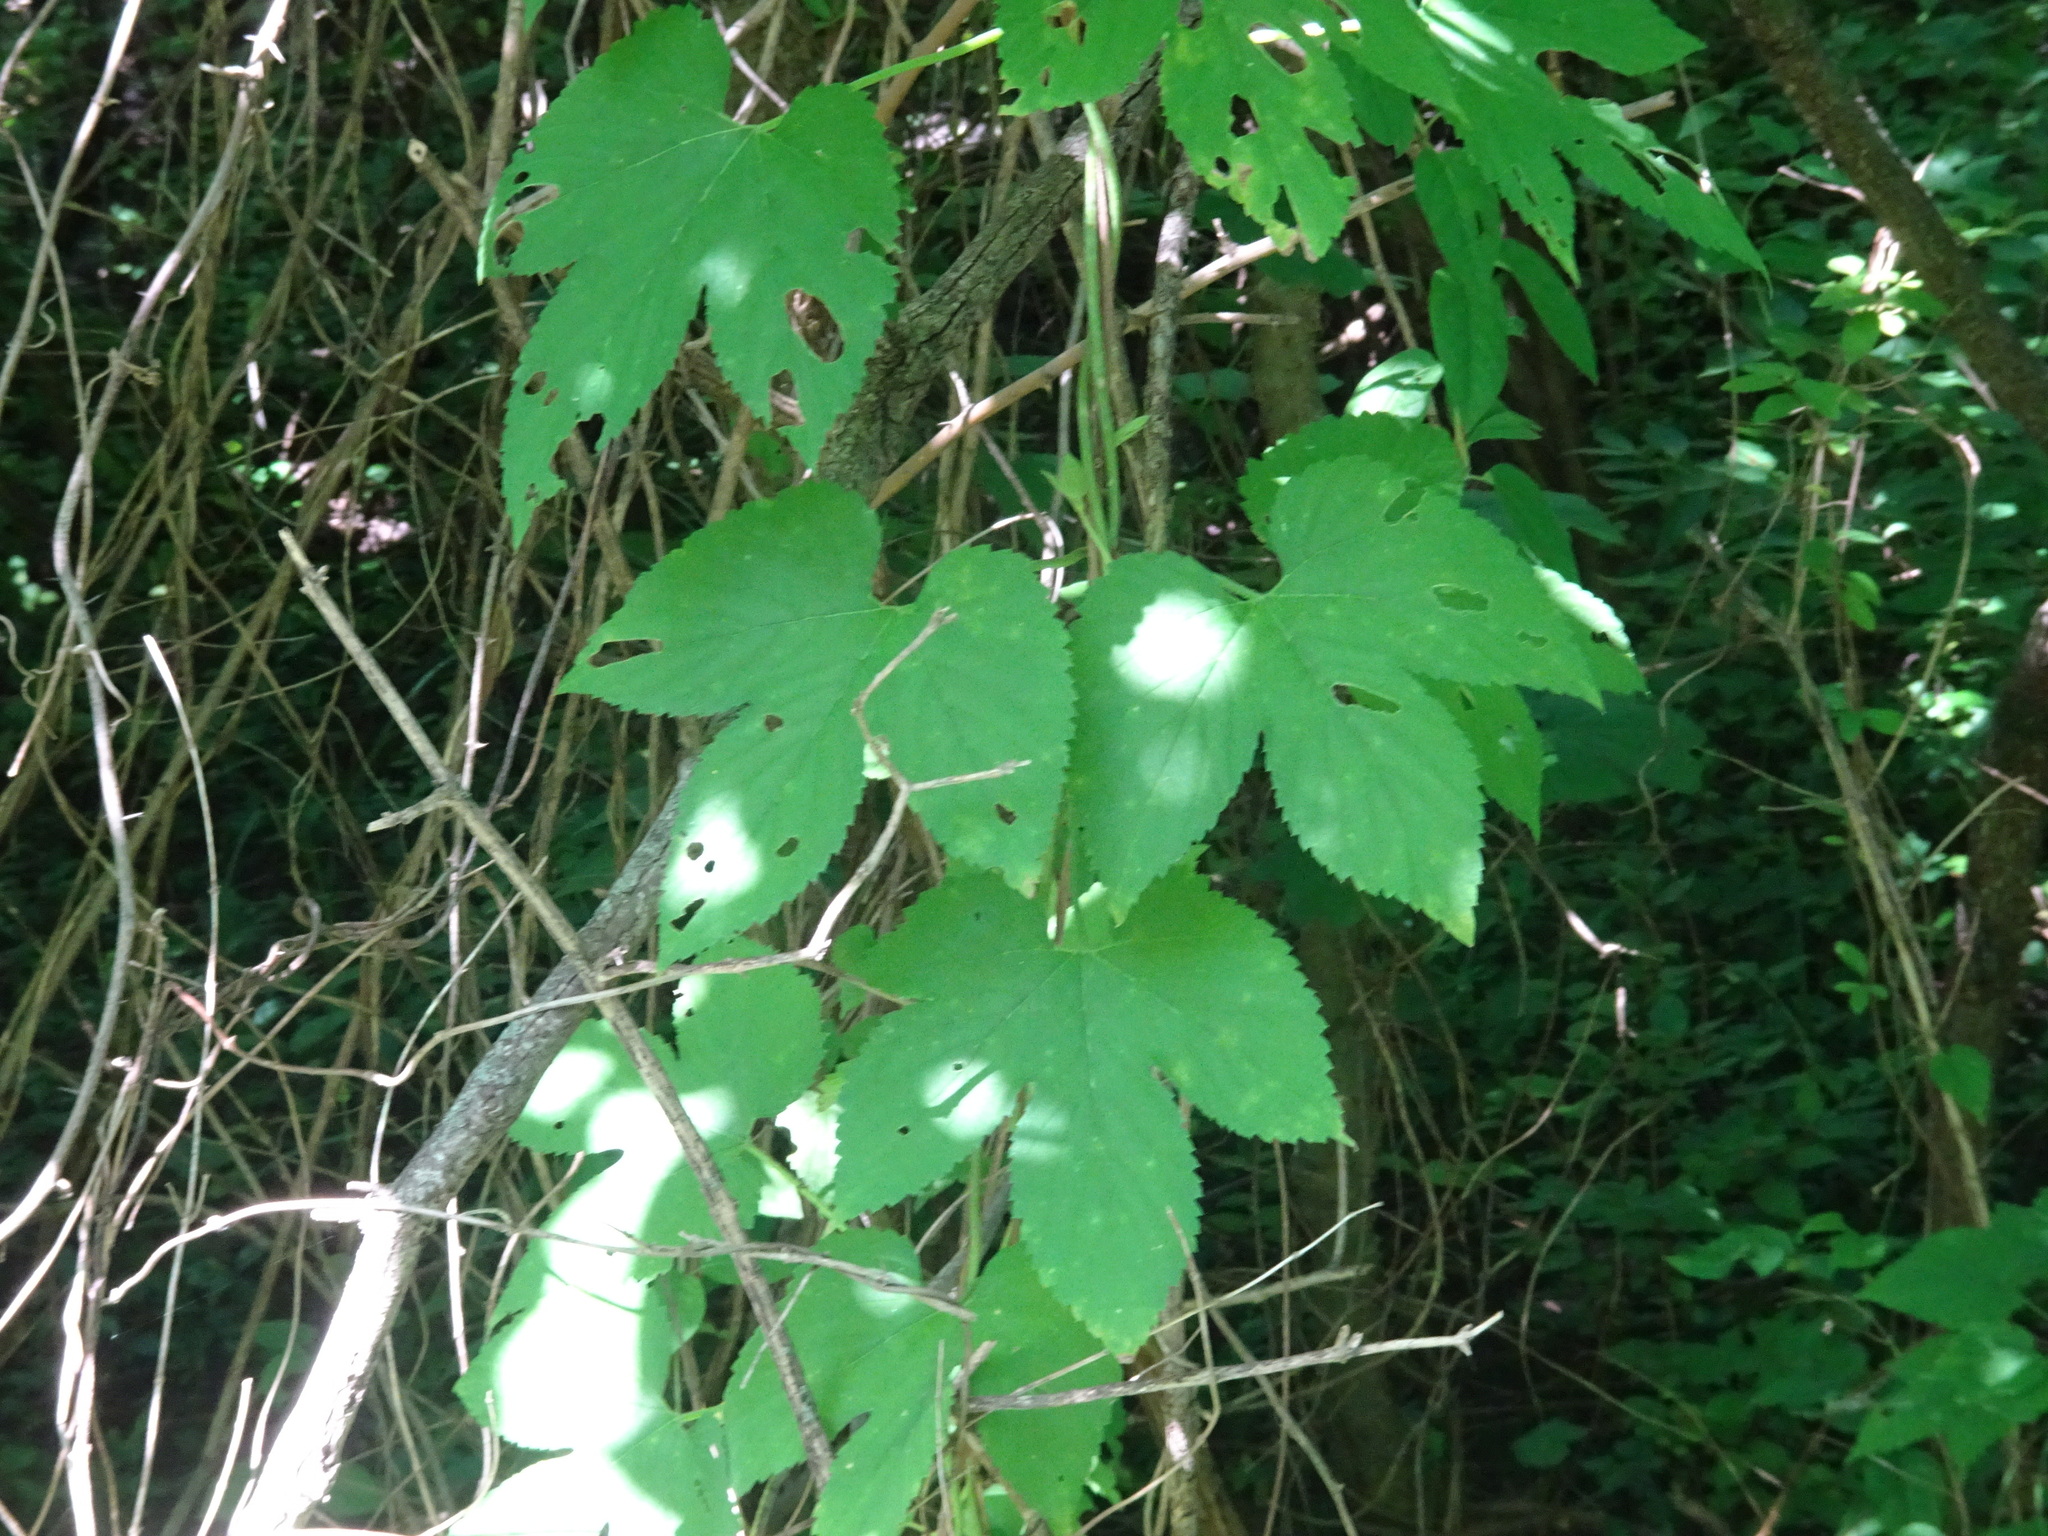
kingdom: Plantae
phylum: Tracheophyta
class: Magnoliopsida
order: Rosales
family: Cannabaceae
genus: Humulus
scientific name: Humulus lupulus
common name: Hop
